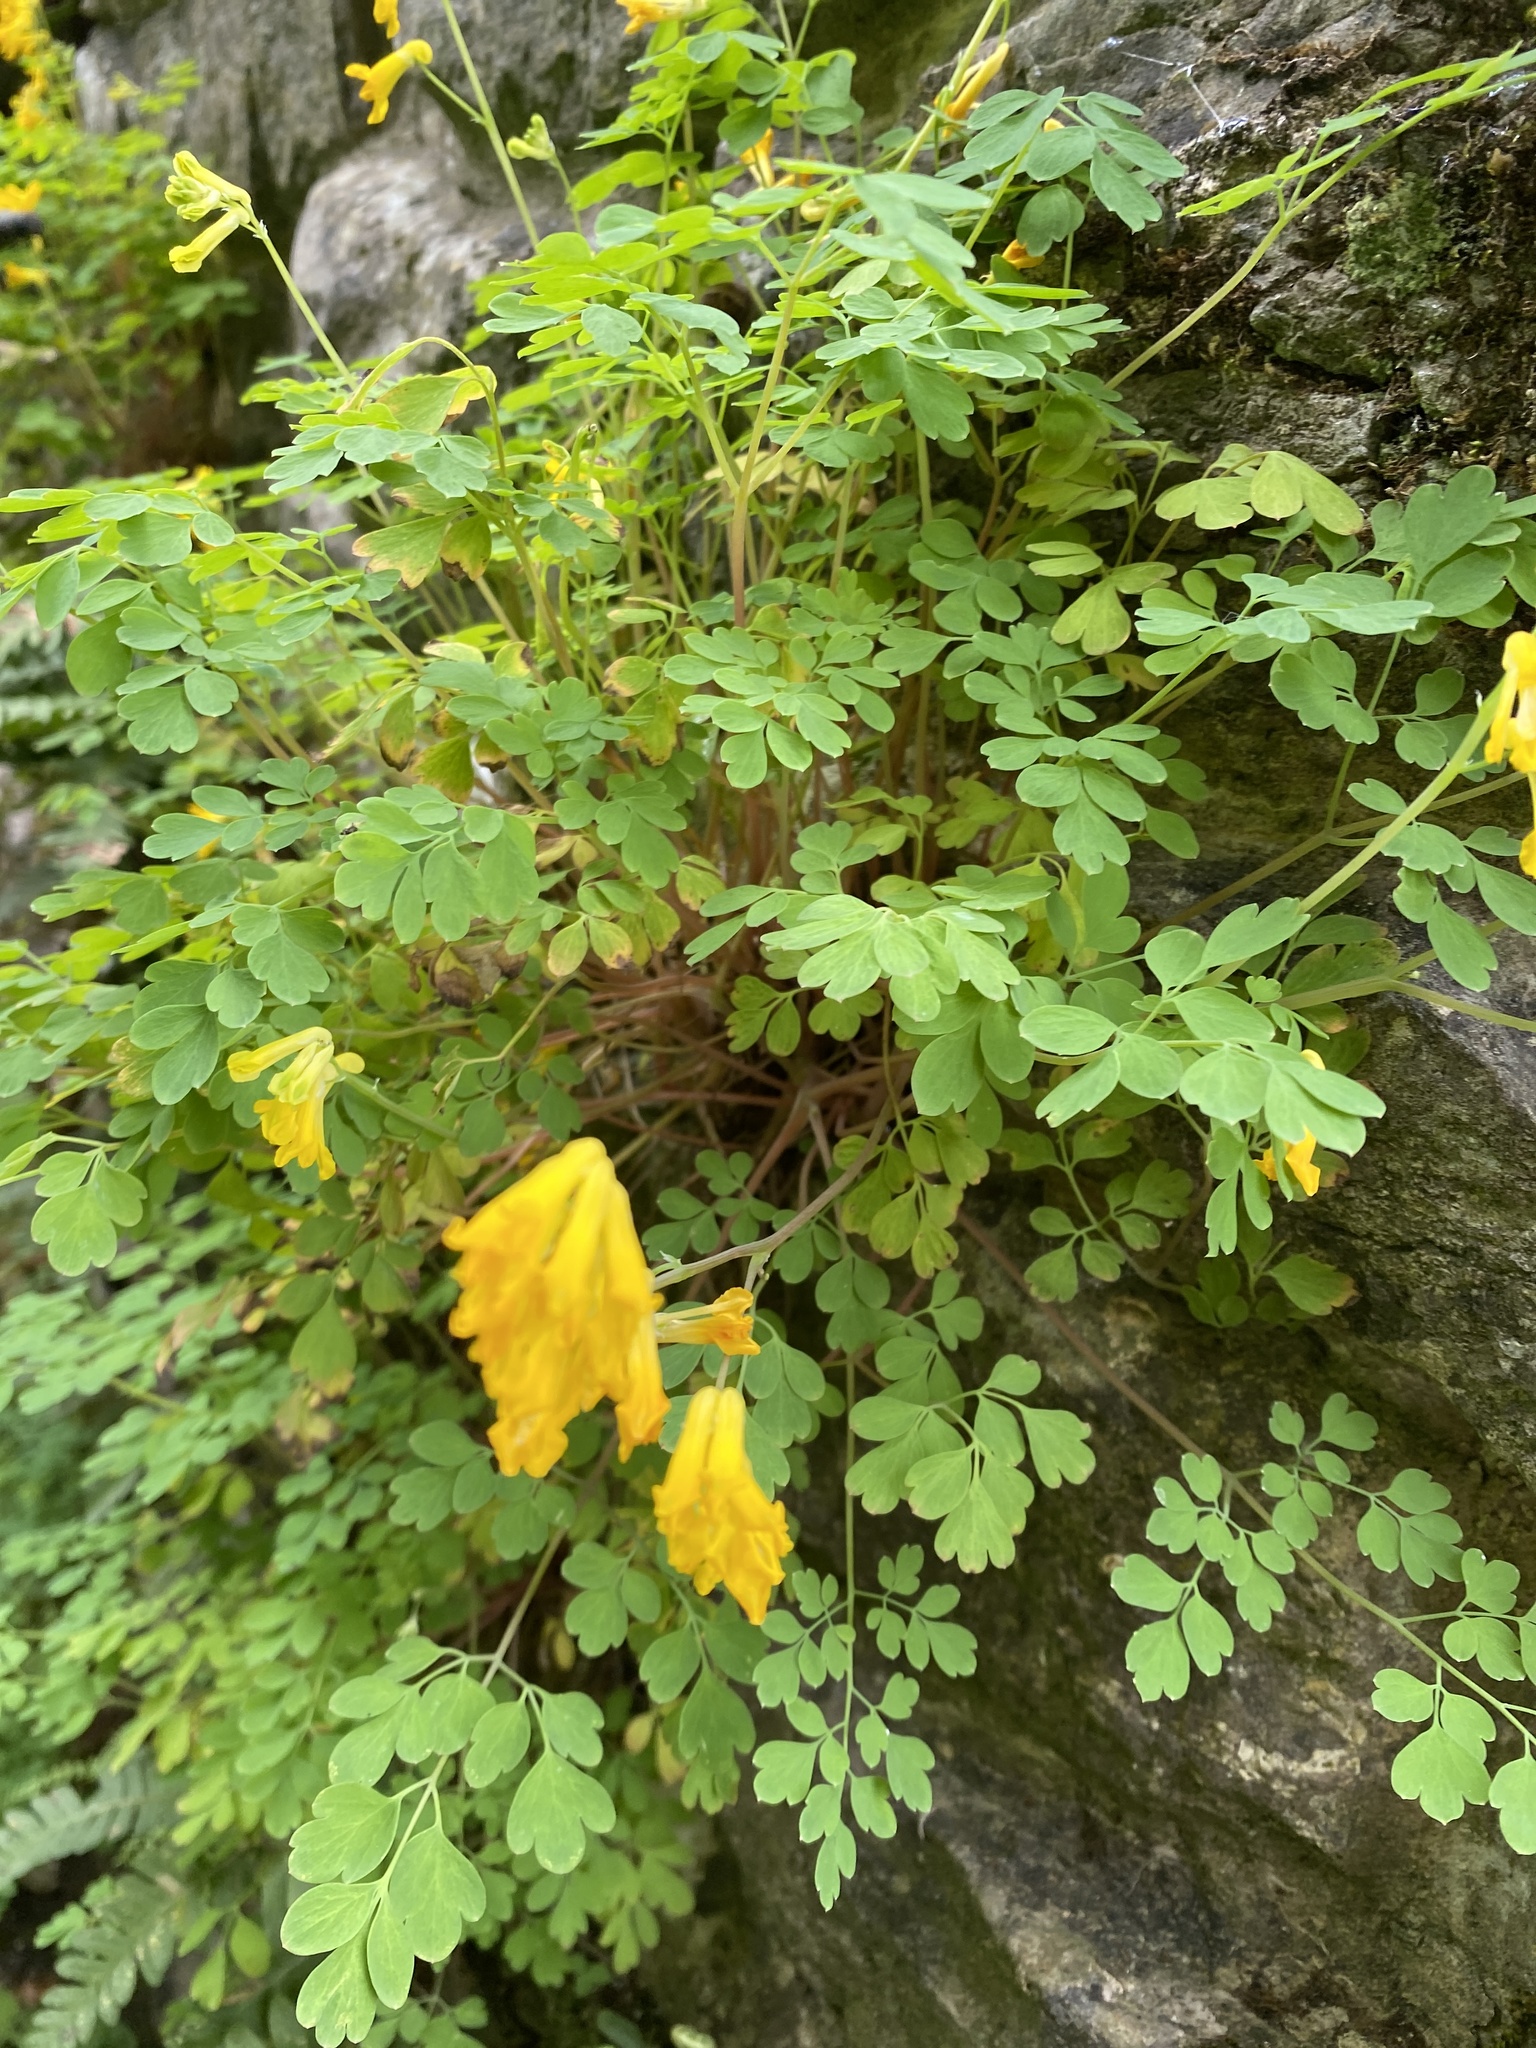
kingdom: Plantae
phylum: Tracheophyta
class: Magnoliopsida
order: Ranunculales
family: Papaveraceae
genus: Pseudofumaria
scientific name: Pseudofumaria lutea
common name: Yellow corydalis
